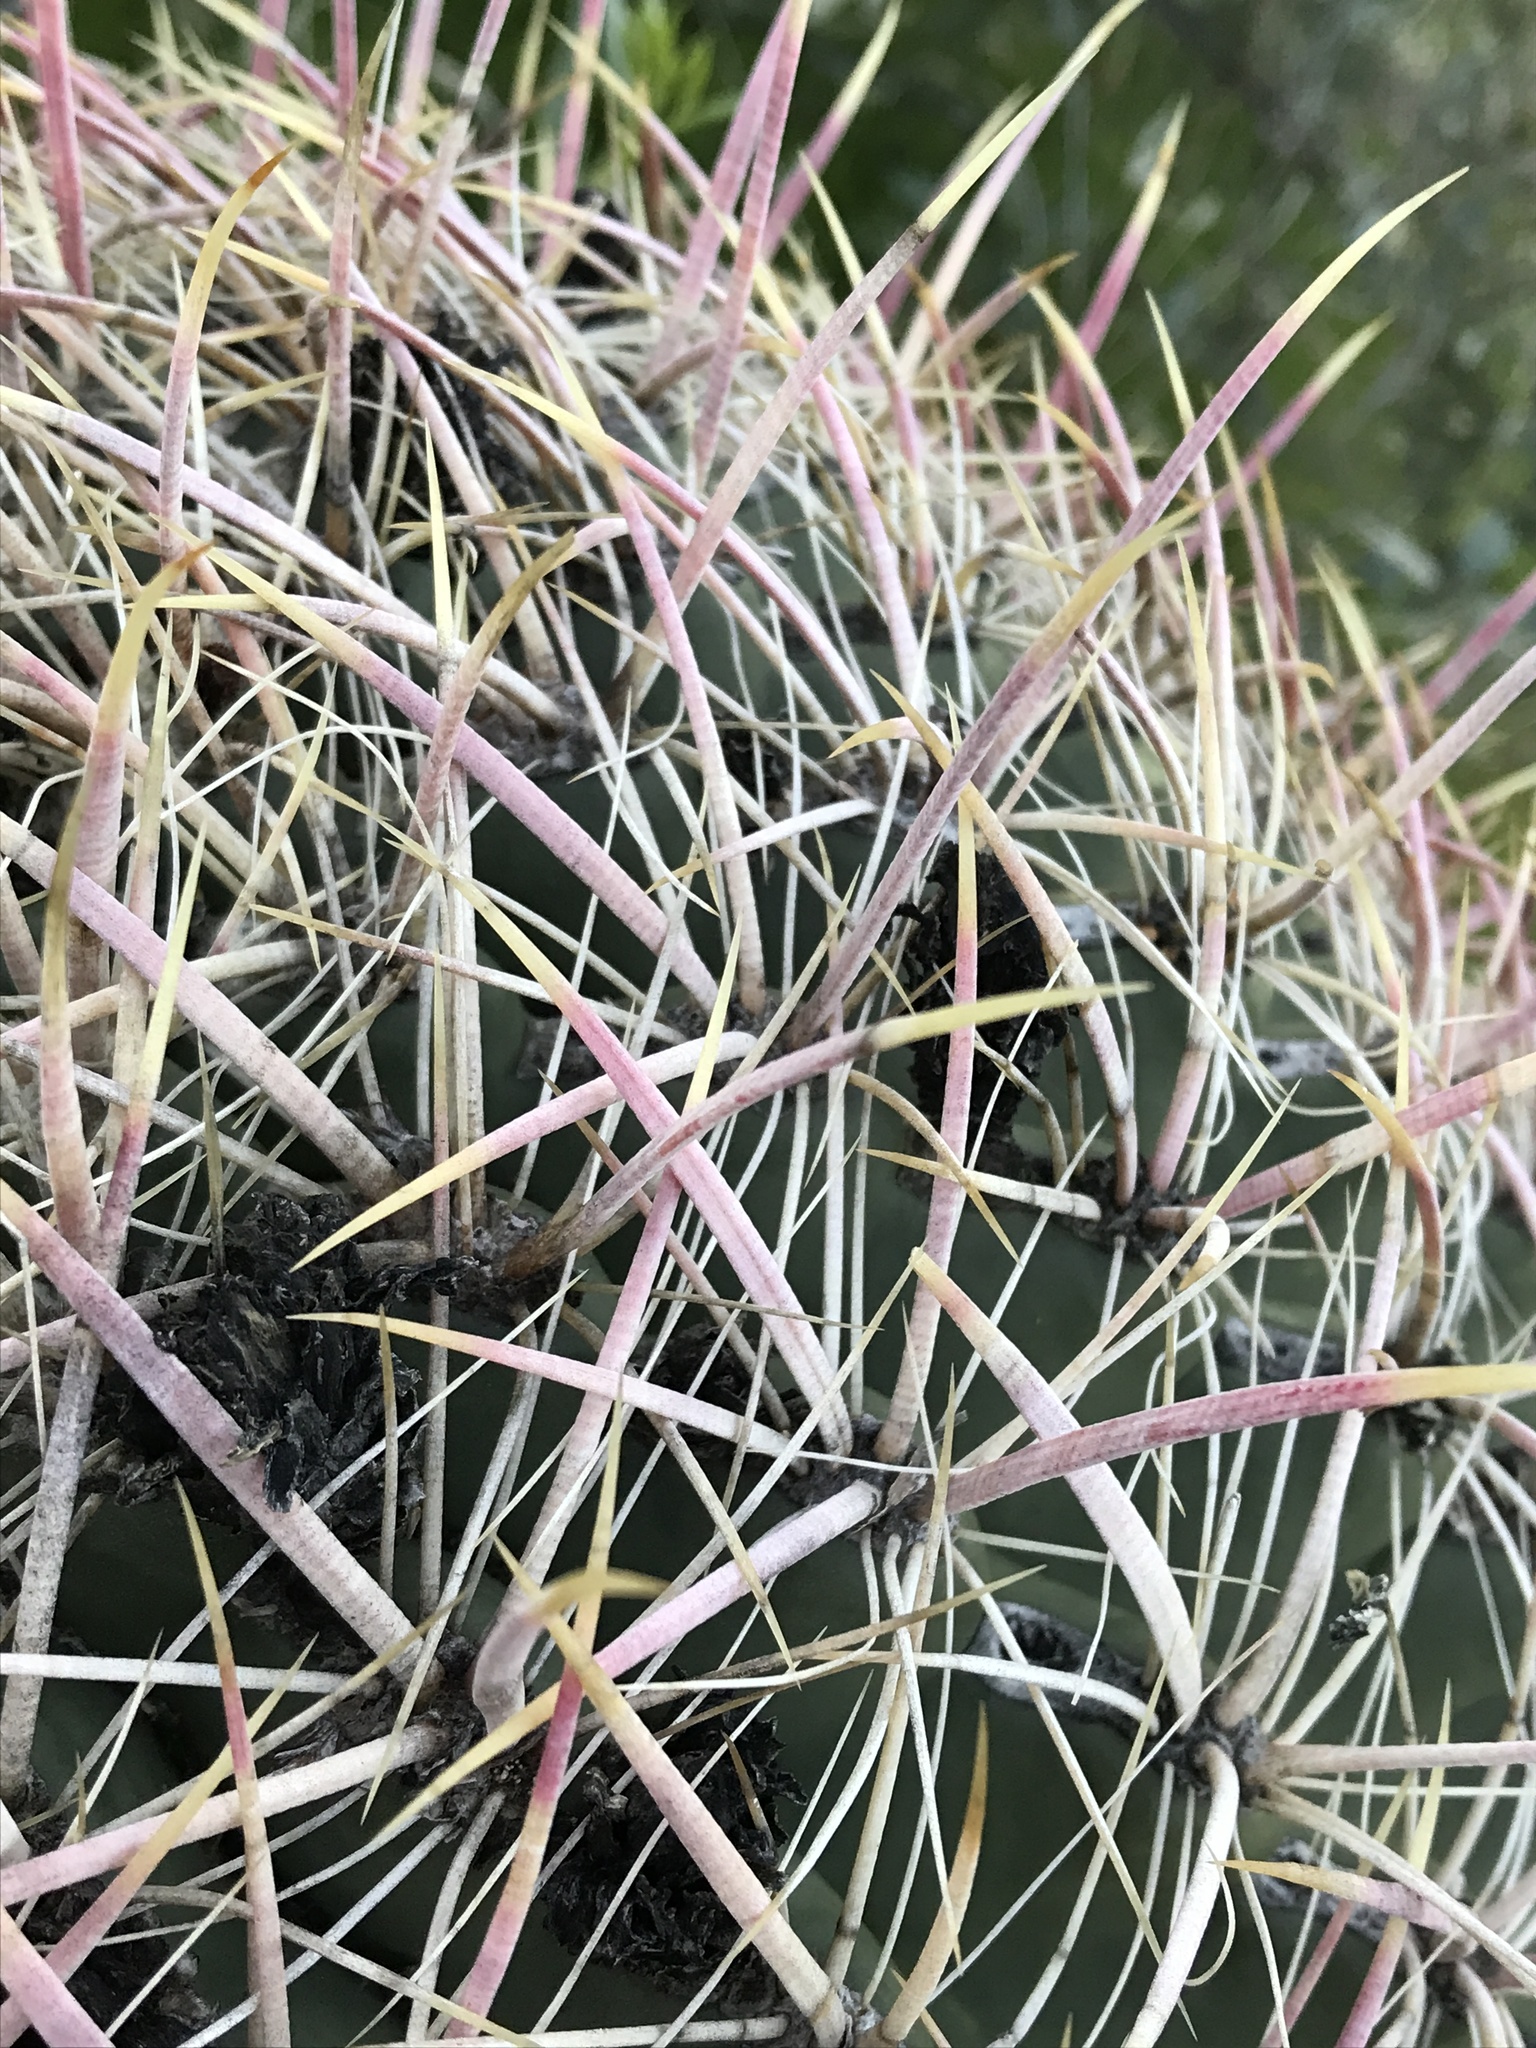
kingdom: Plantae
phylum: Tracheophyta
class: Magnoliopsida
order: Caryophyllales
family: Cactaceae
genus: Ferocactus
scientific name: Ferocactus cylindraceus
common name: California barrel cactus
